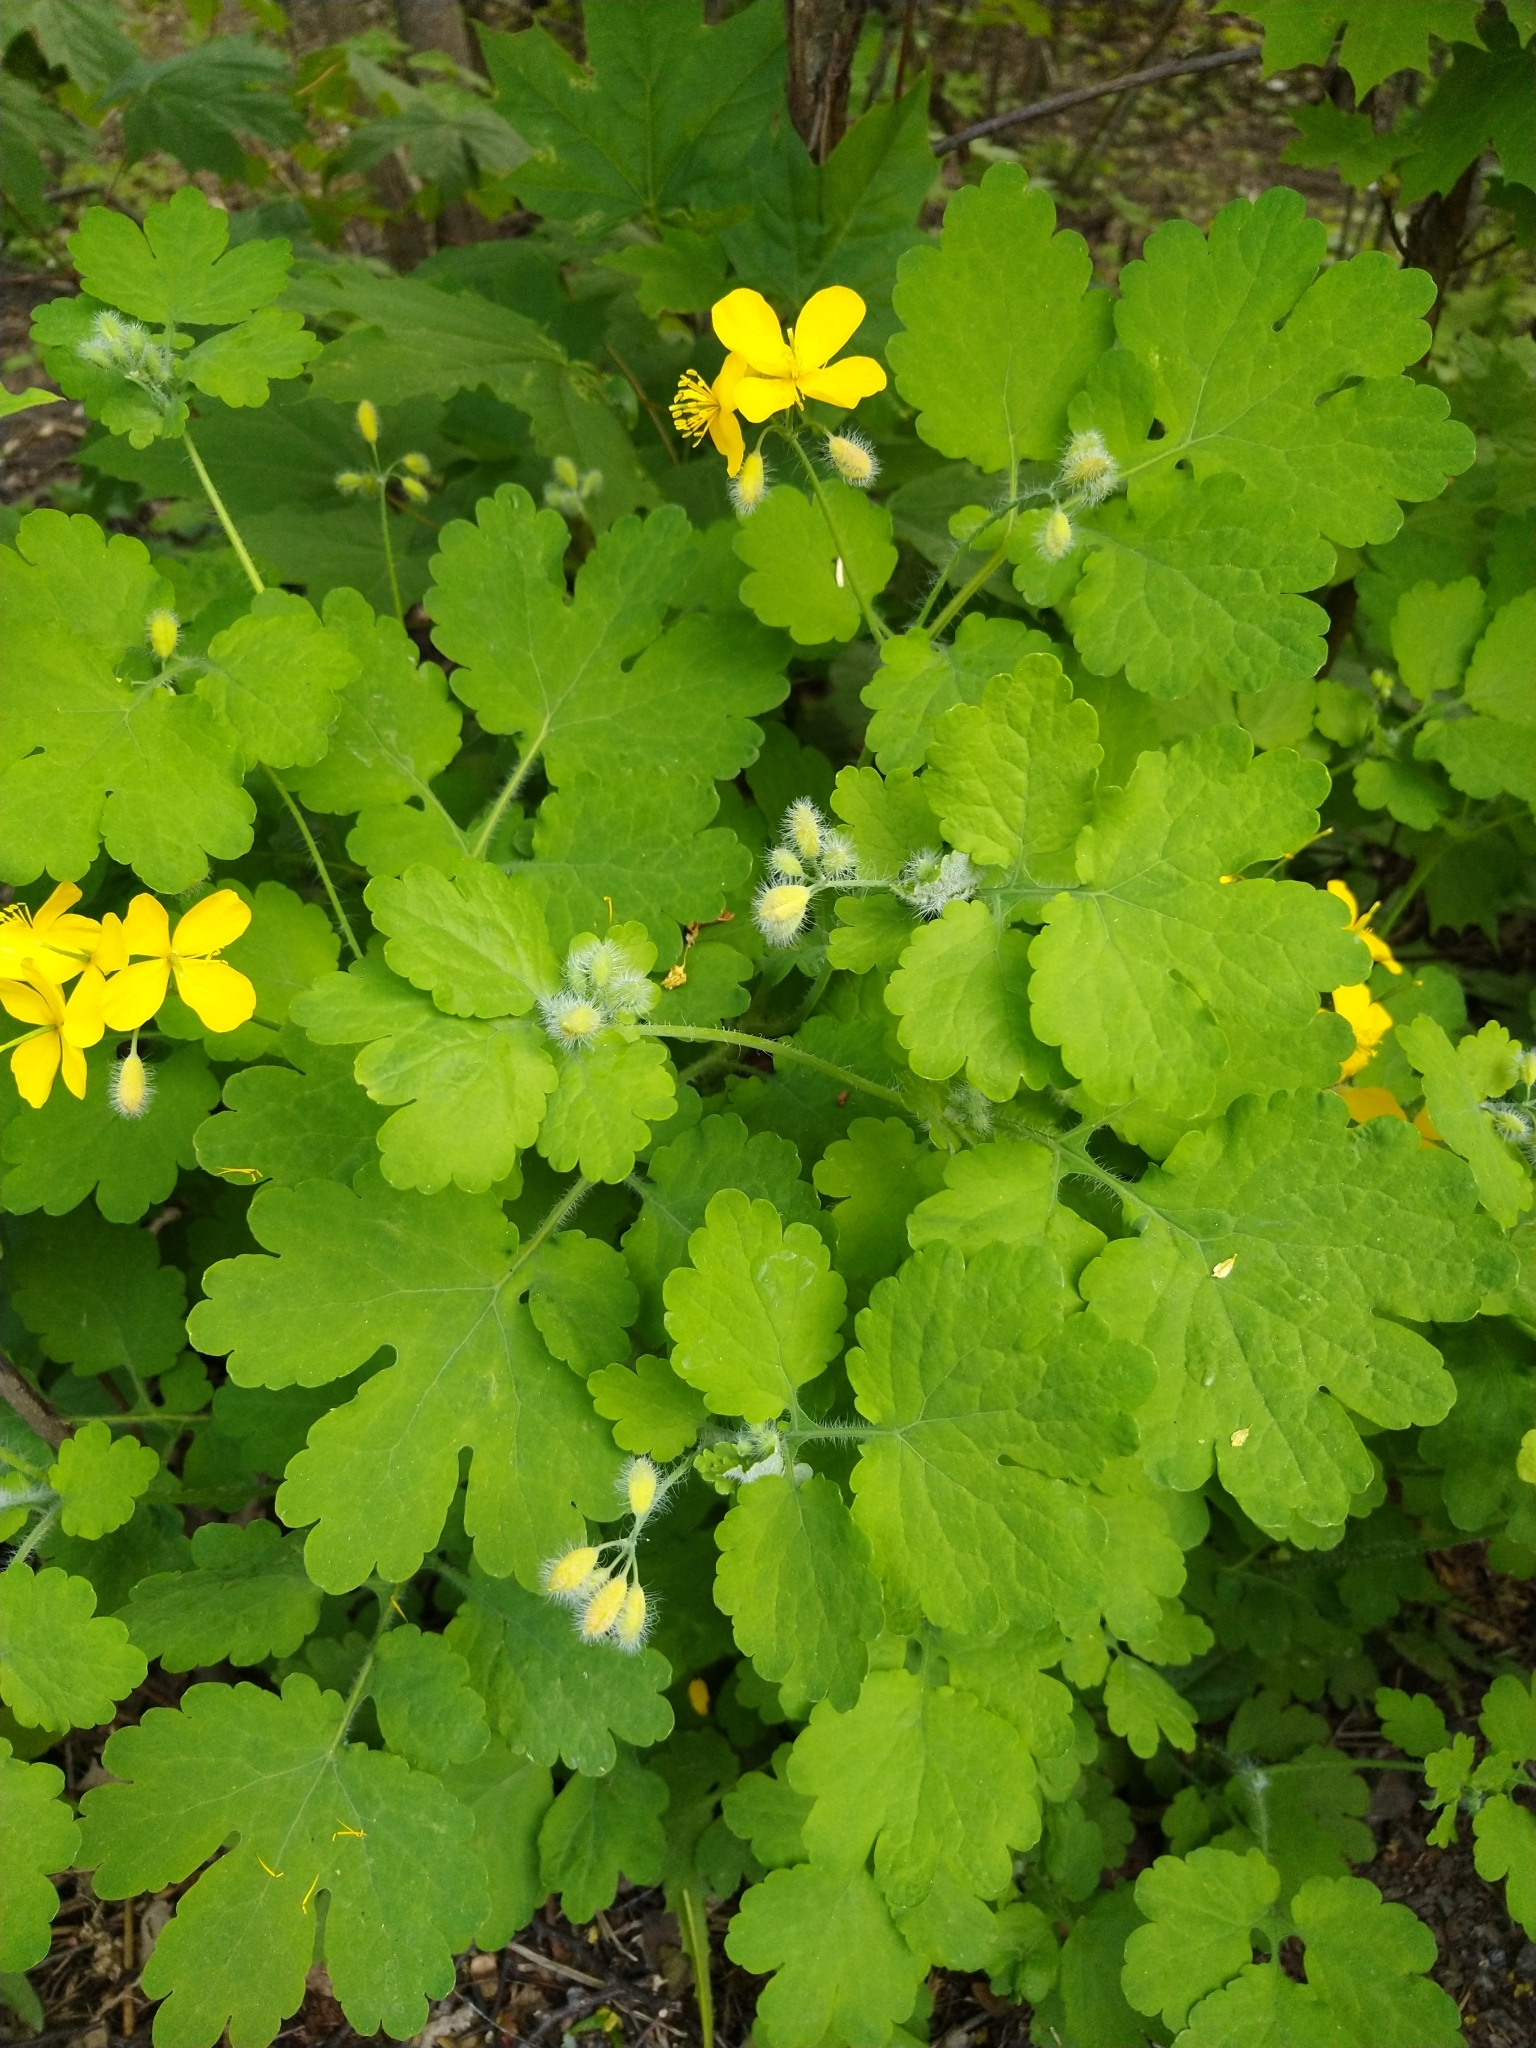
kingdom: Plantae
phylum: Tracheophyta
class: Magnoliopsida
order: Ranunculales
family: Papaveraceae
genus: Chelidonium
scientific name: Chelidonium majus
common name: Greater celandine
